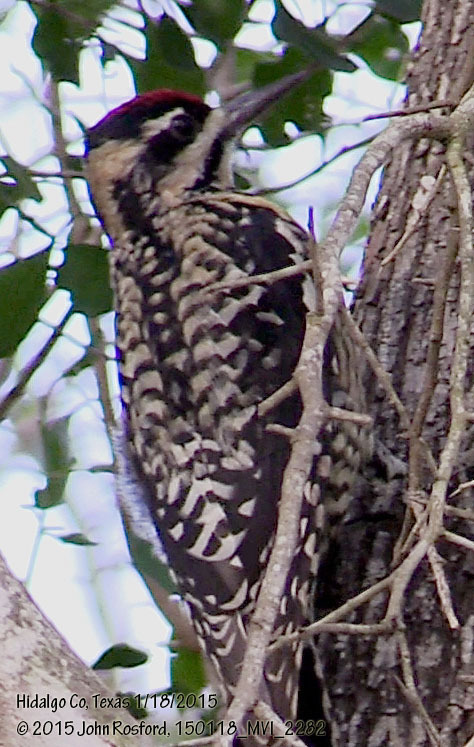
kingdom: Animalia
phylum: Chordata
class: Aves
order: Piciformes
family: Picidae
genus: Sphyrapicus
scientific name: Sphyrapicus varius
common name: Yellow-bellied sapsucker
